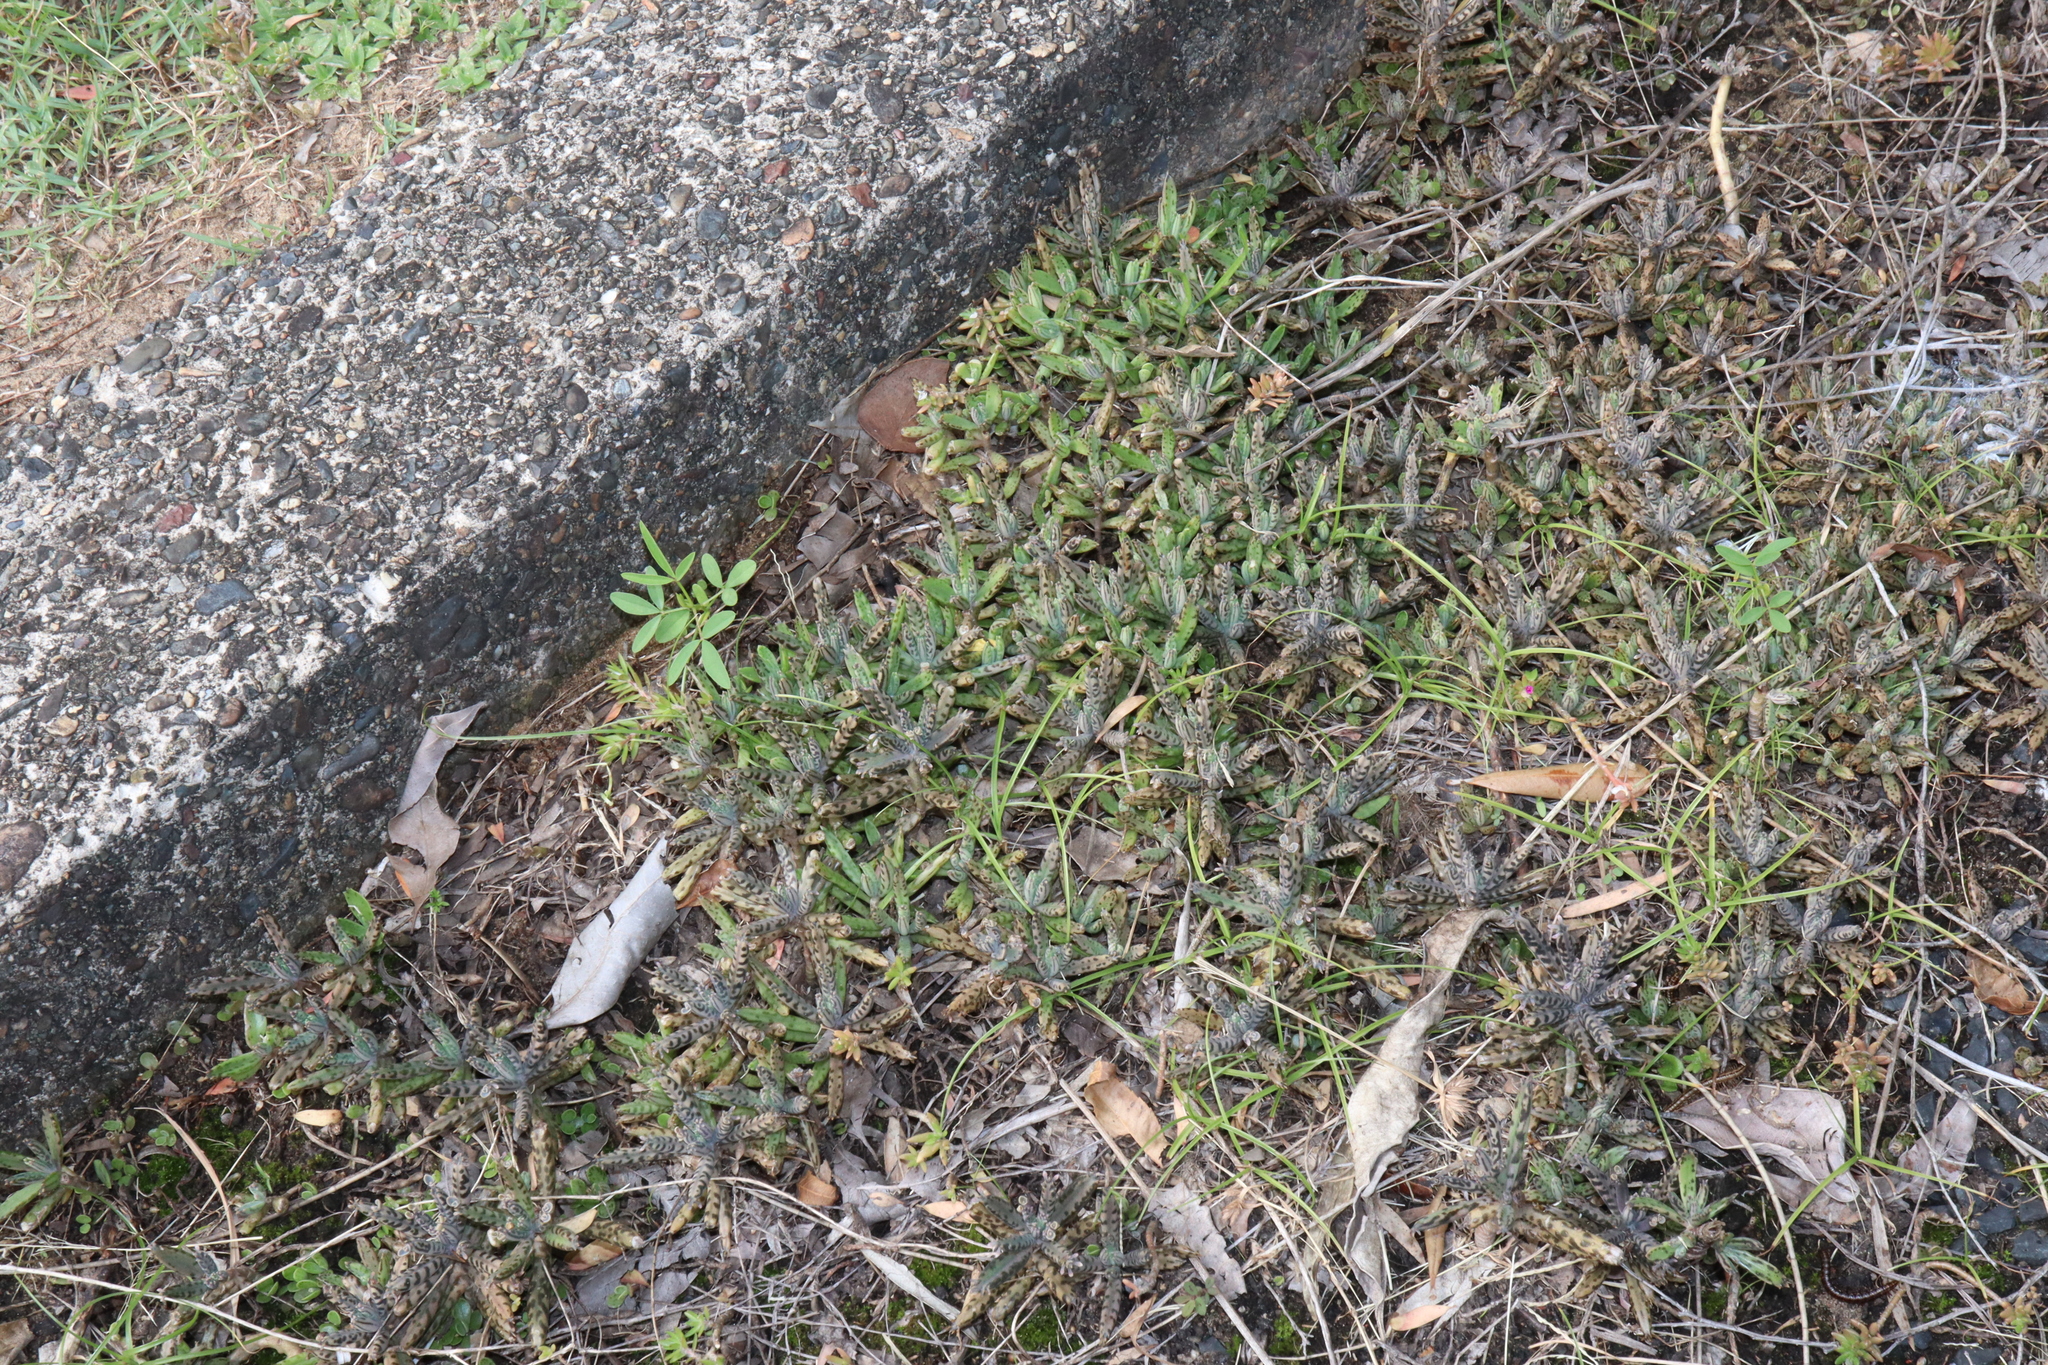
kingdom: Plantae
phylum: Tracheophyta
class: Magnoliopsida
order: Saxifragales
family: Crassulaceae
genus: Kalanchoe
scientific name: Kalanchoe delagoensis
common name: Chandelier plant
